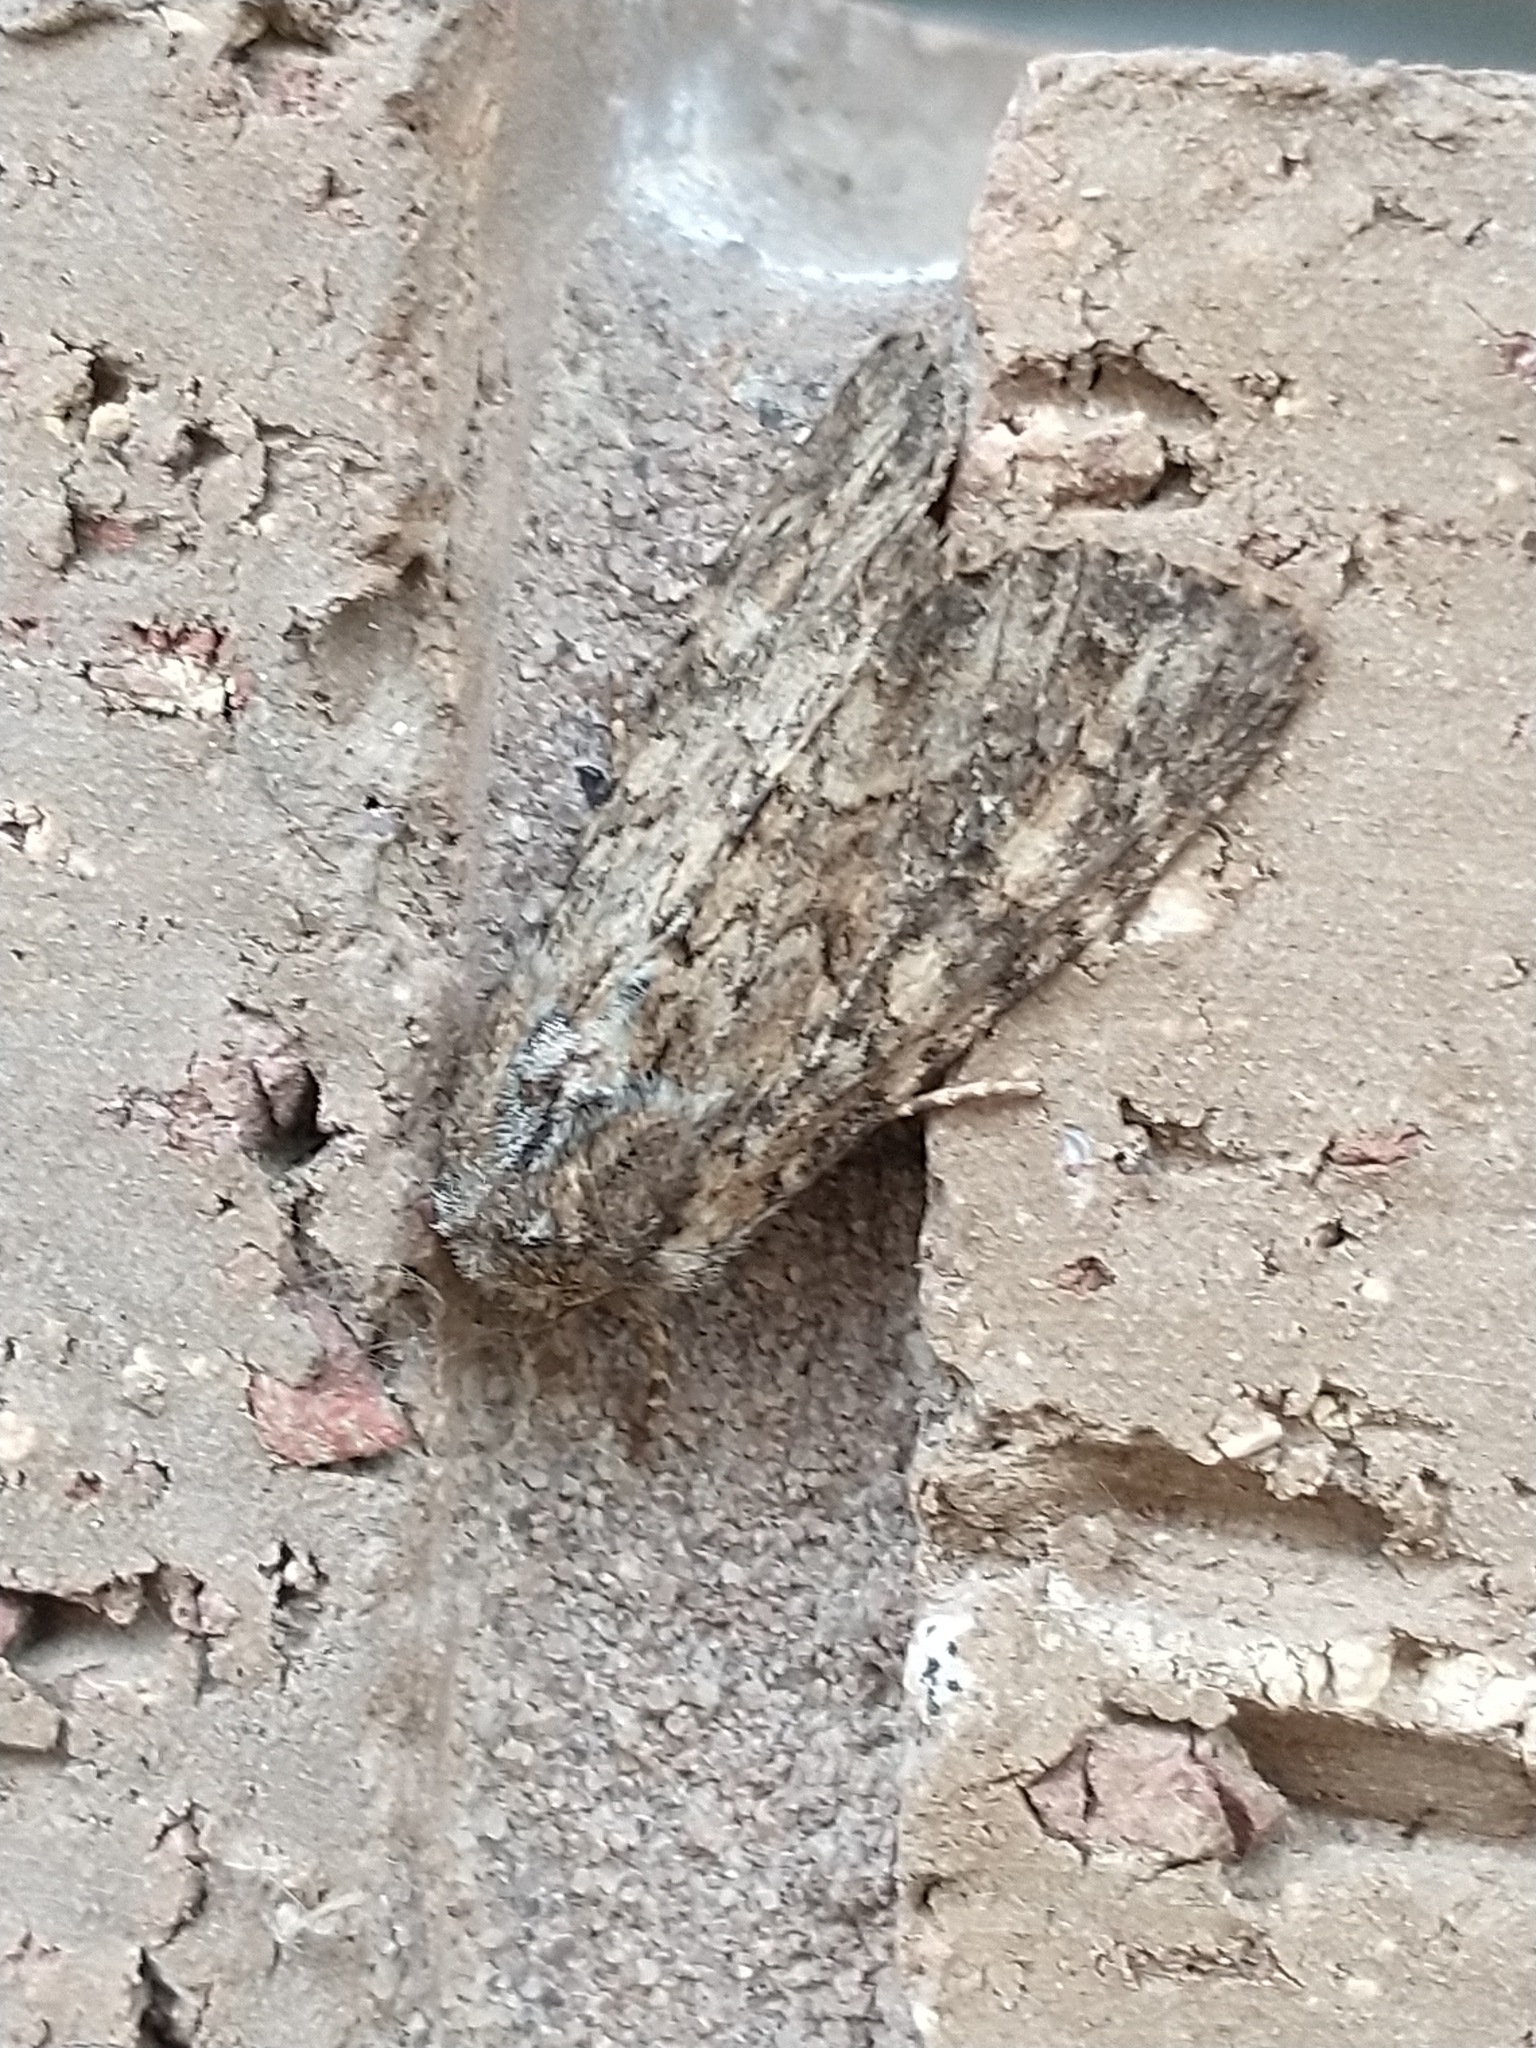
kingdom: Animalia
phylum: Arthropoda
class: Insecta
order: Lepidoptera
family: Noctuidae
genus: Apamea
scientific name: Apamea anceps
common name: Large nutmeg
